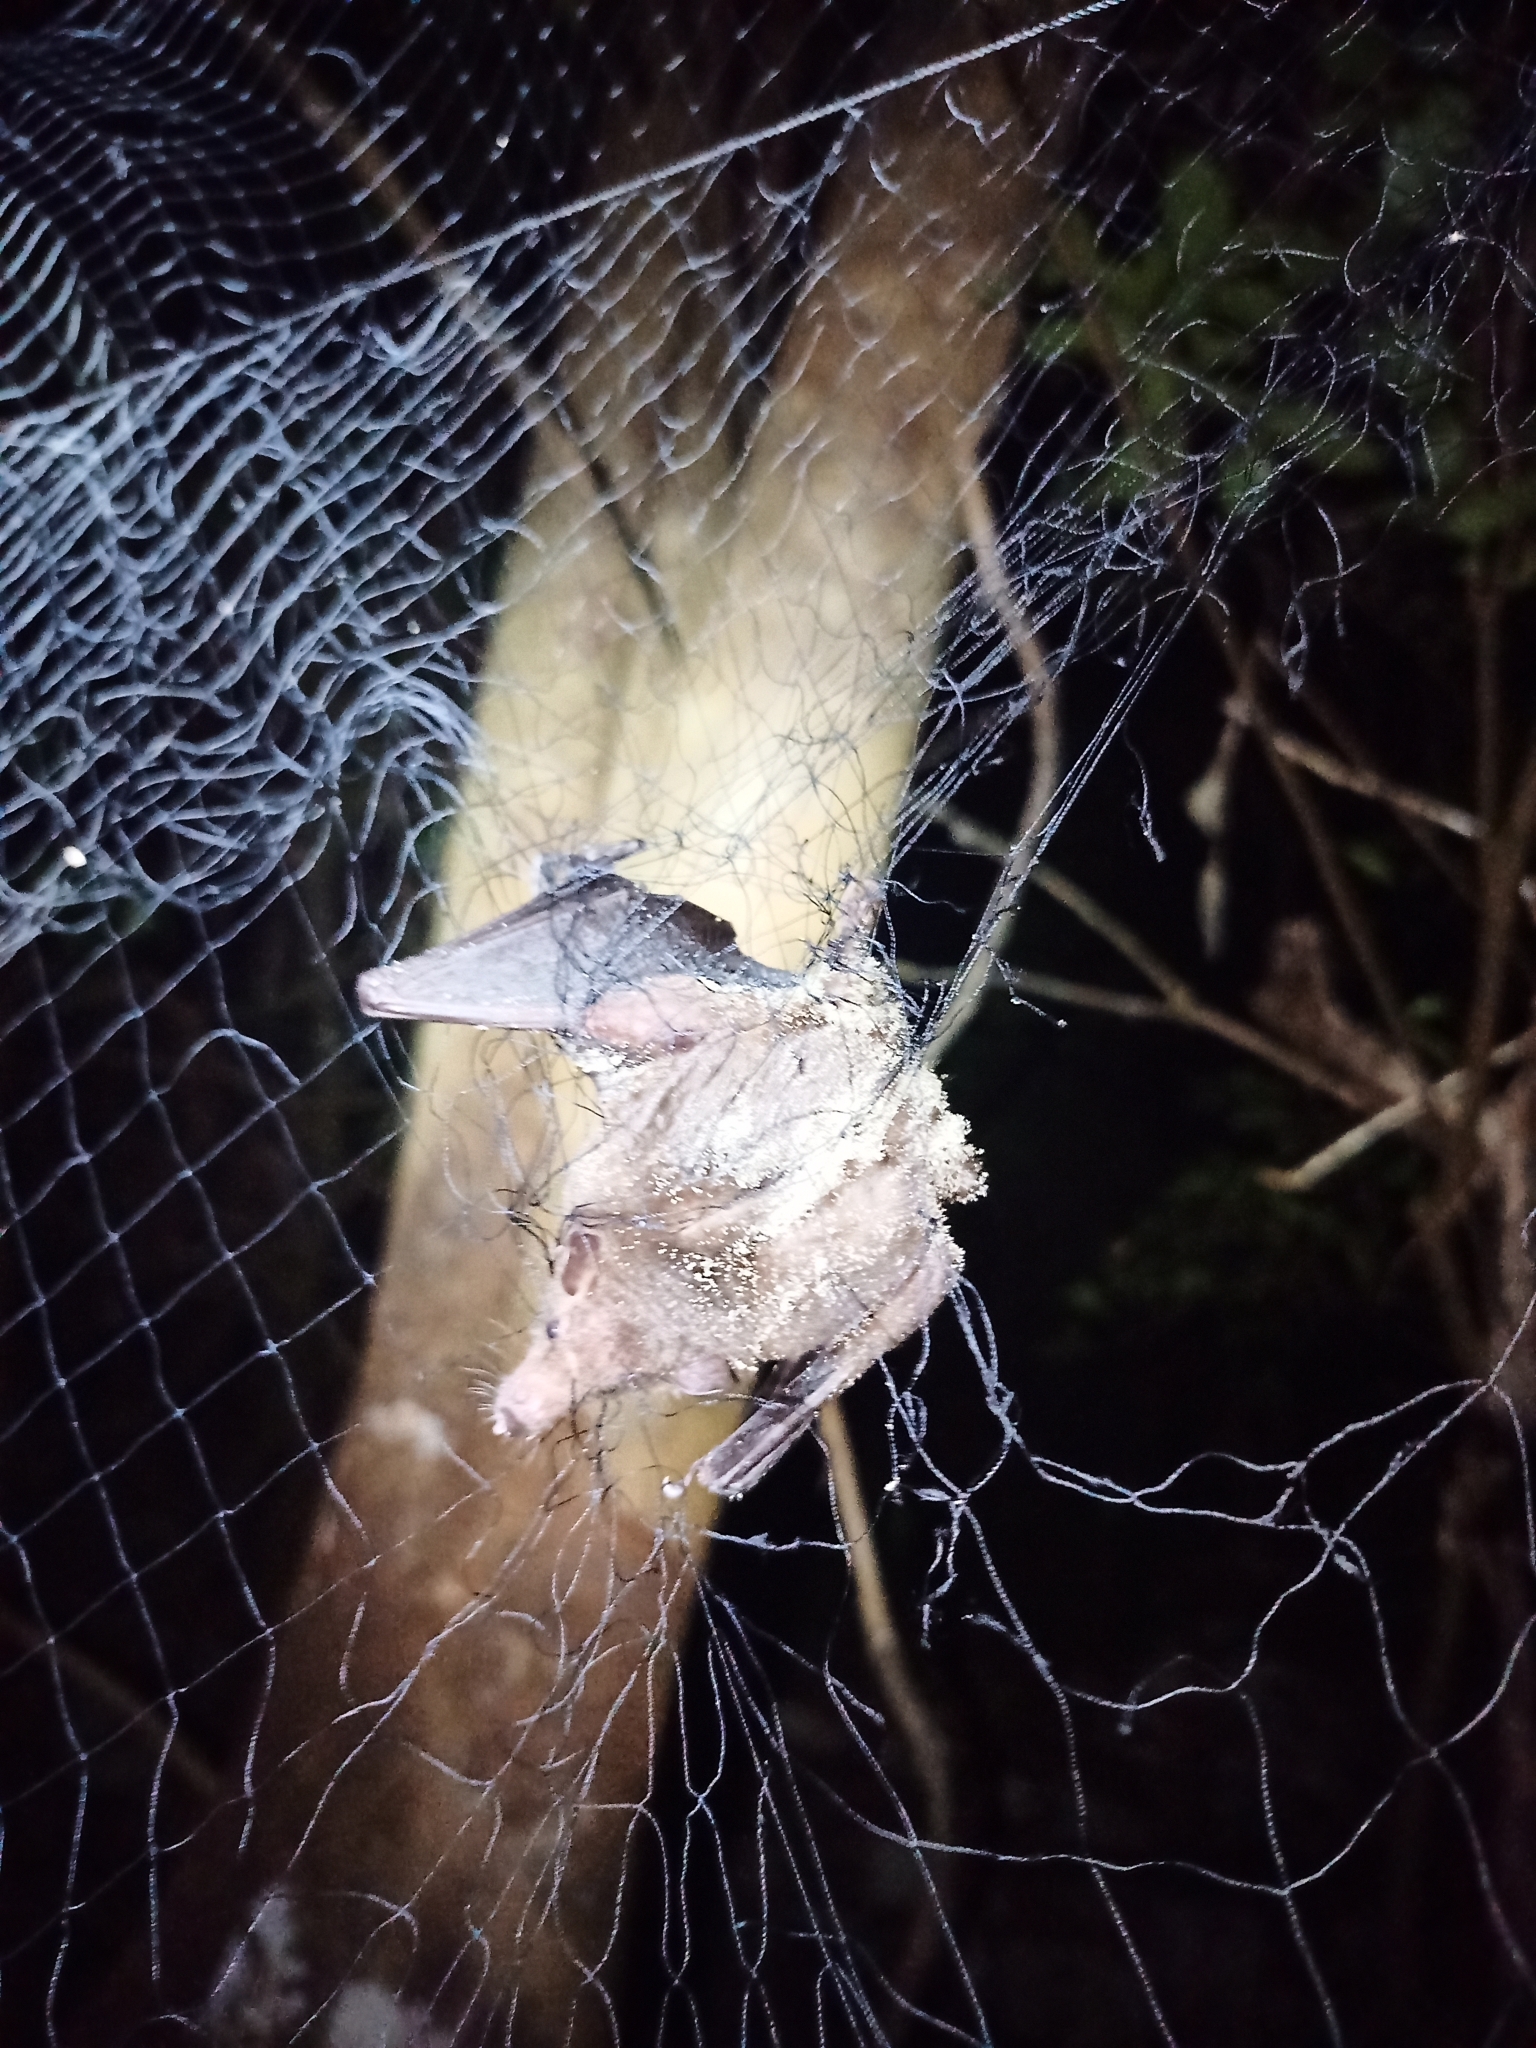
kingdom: Animalia
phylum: Chordata
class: Mammalia
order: Chiroptera
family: Phyllostomidae
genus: Anoura
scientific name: Anoura peruana
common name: Tschudi's tailless bat
